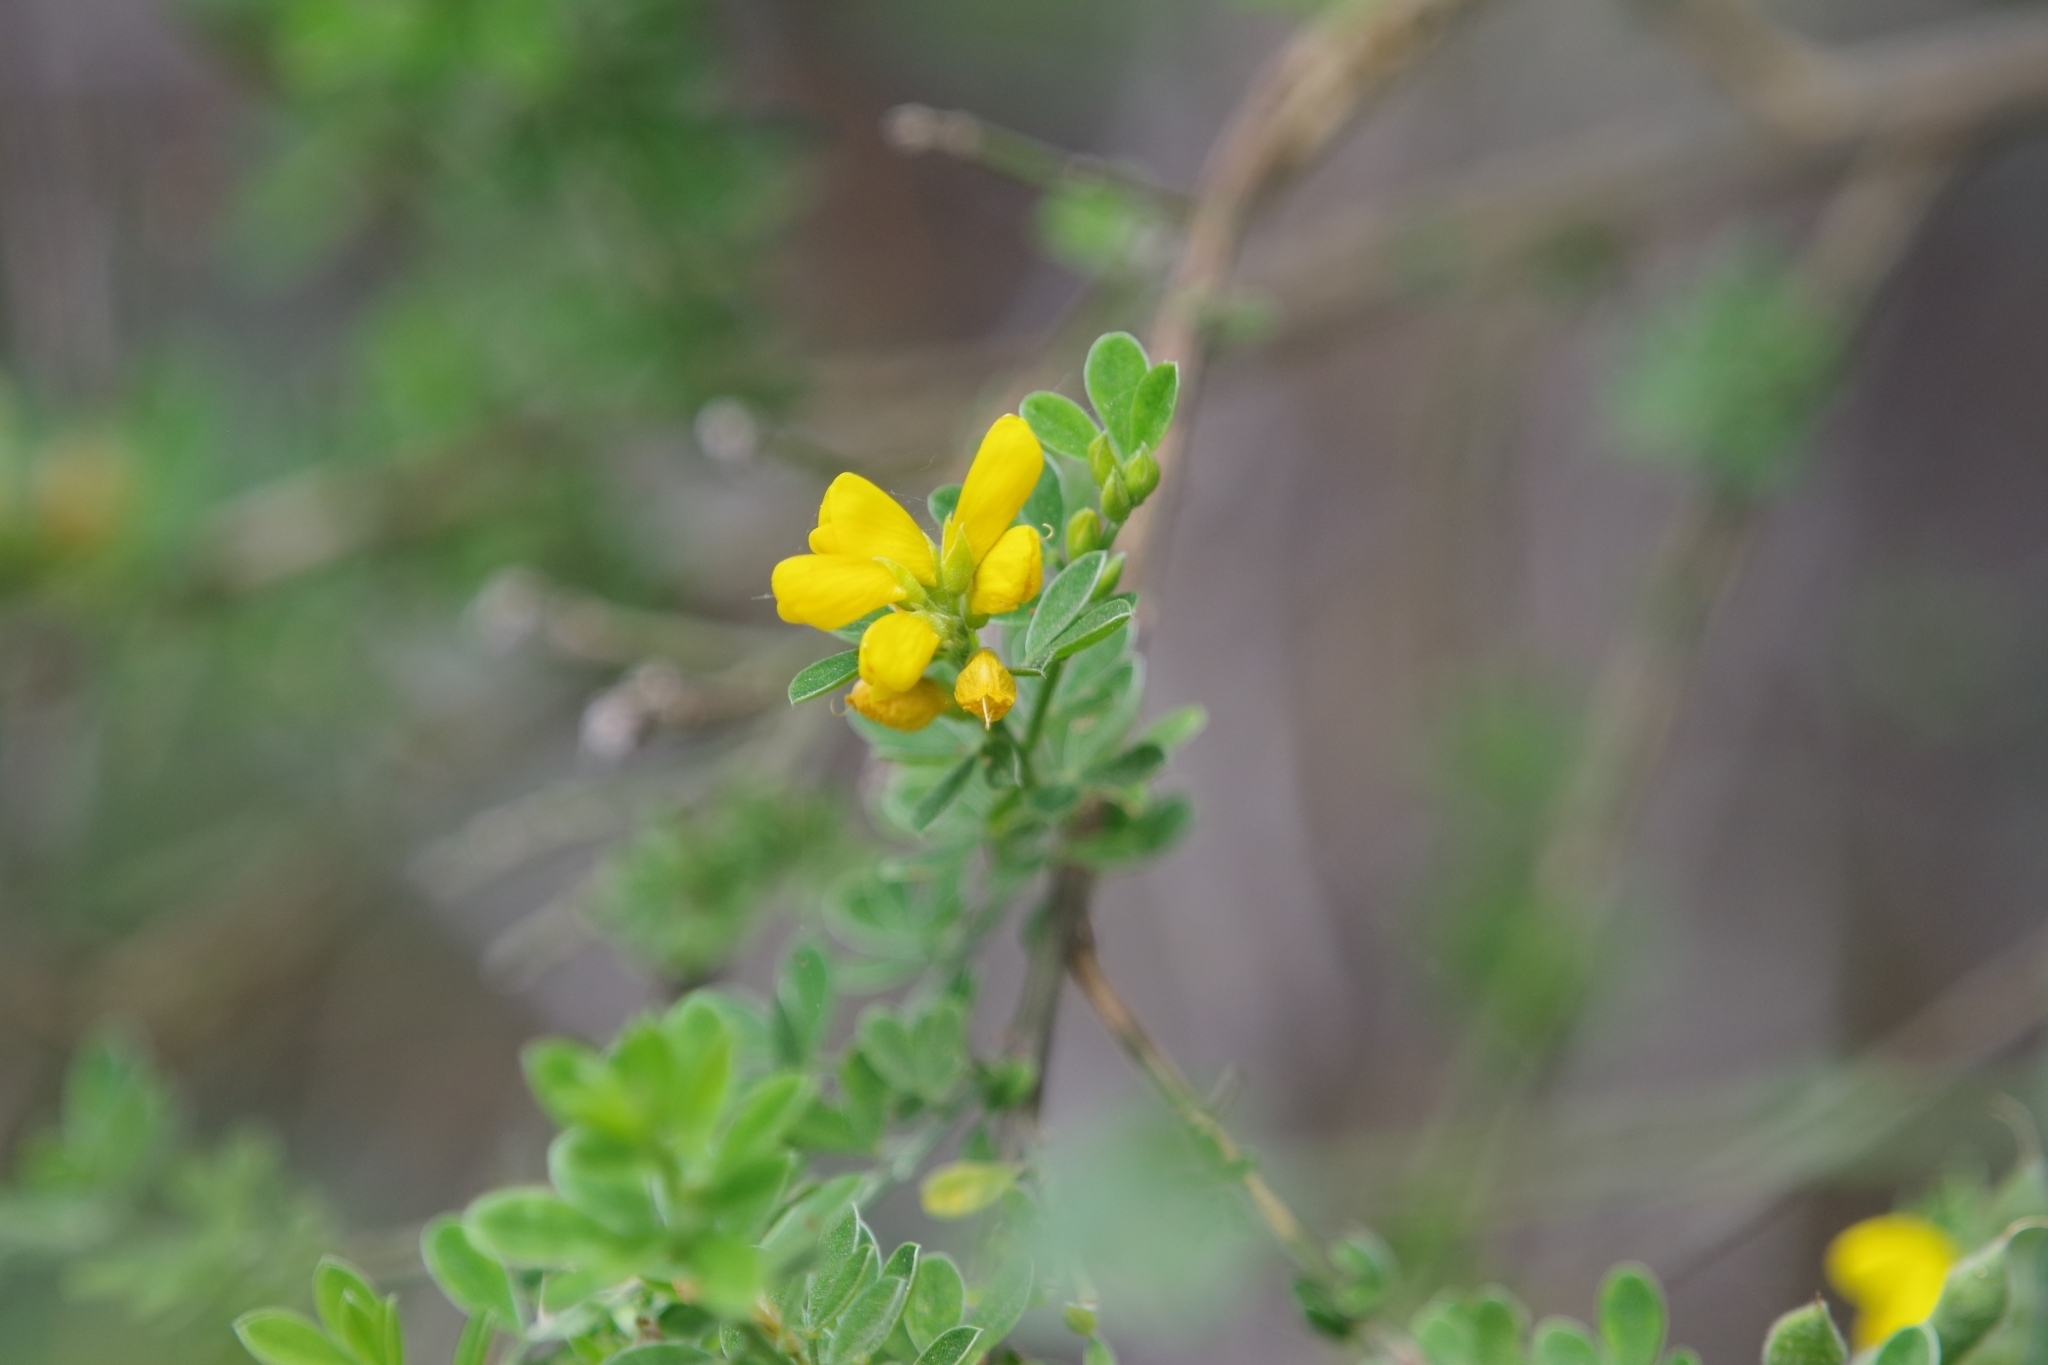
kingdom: Plantae
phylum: Tracheophyta
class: Magnoliopsida
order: Fabales
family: Fabaceae
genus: Genista
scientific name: Genista monspessulana
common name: Montpellier broom
